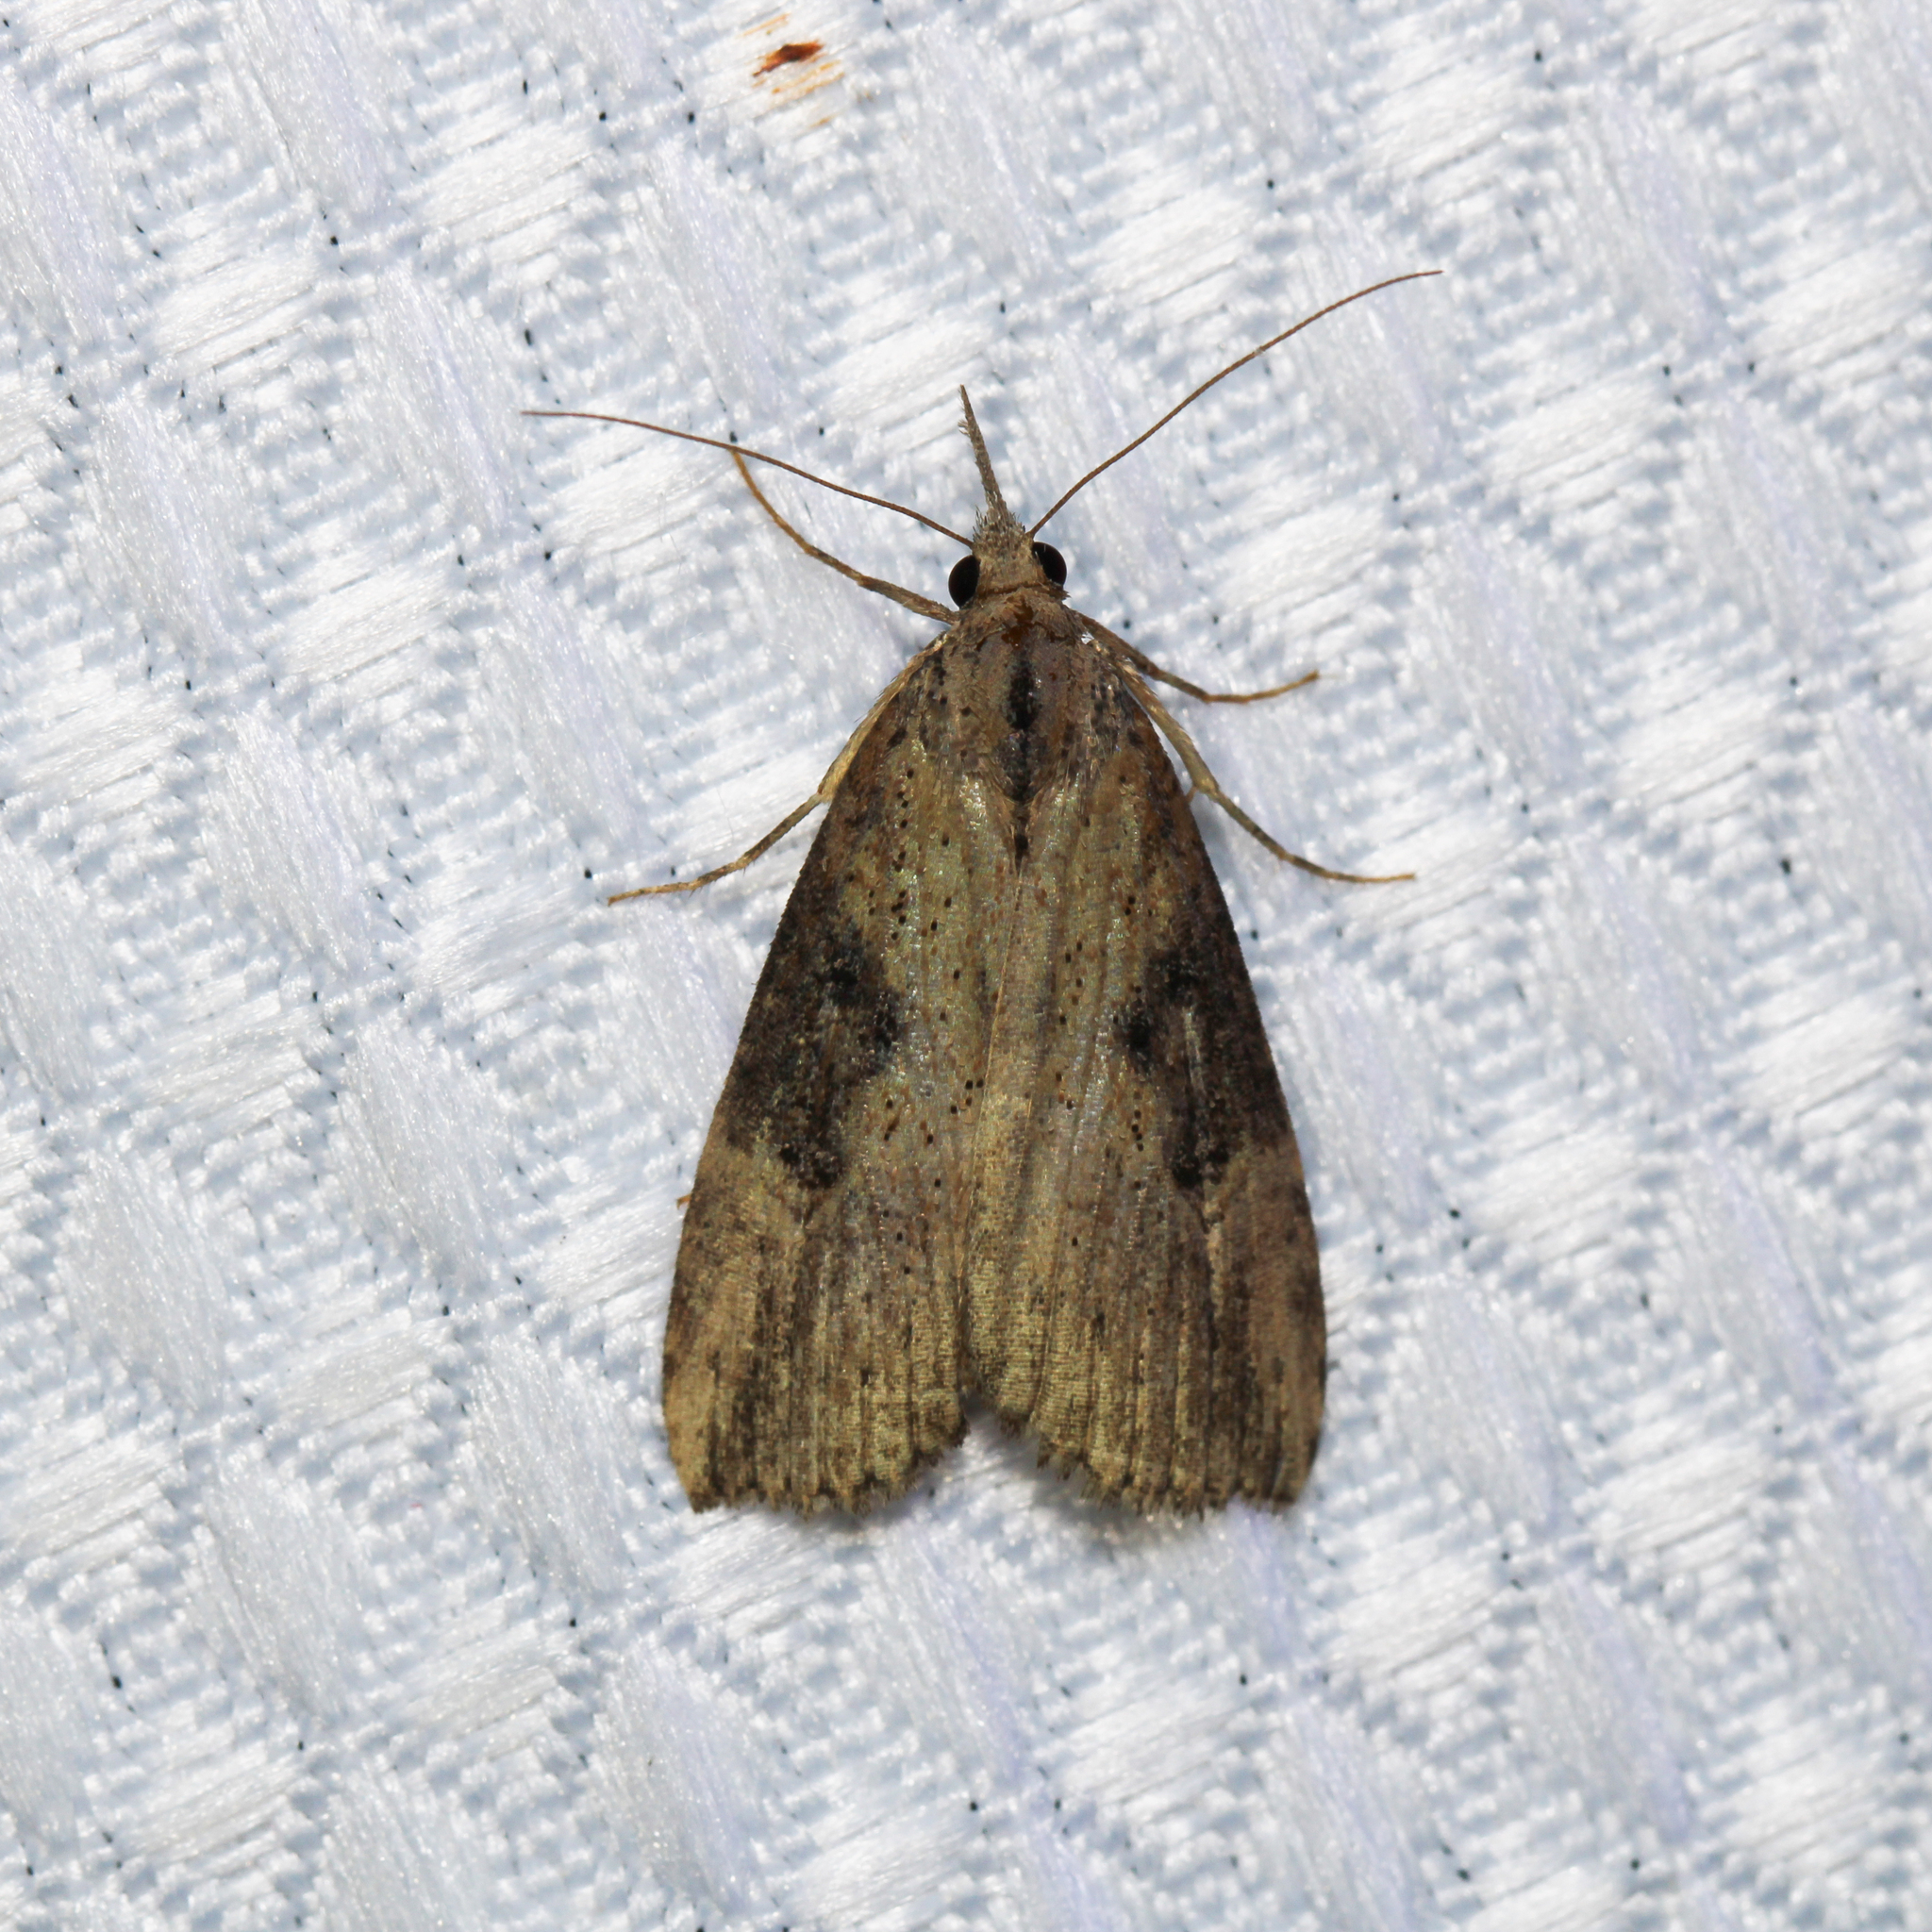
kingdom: Animalia
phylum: Arthropoda
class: Insecta
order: Lepidoptera
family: Erebidae
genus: Hypena
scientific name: Hypena humuli
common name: Hop vine snout
